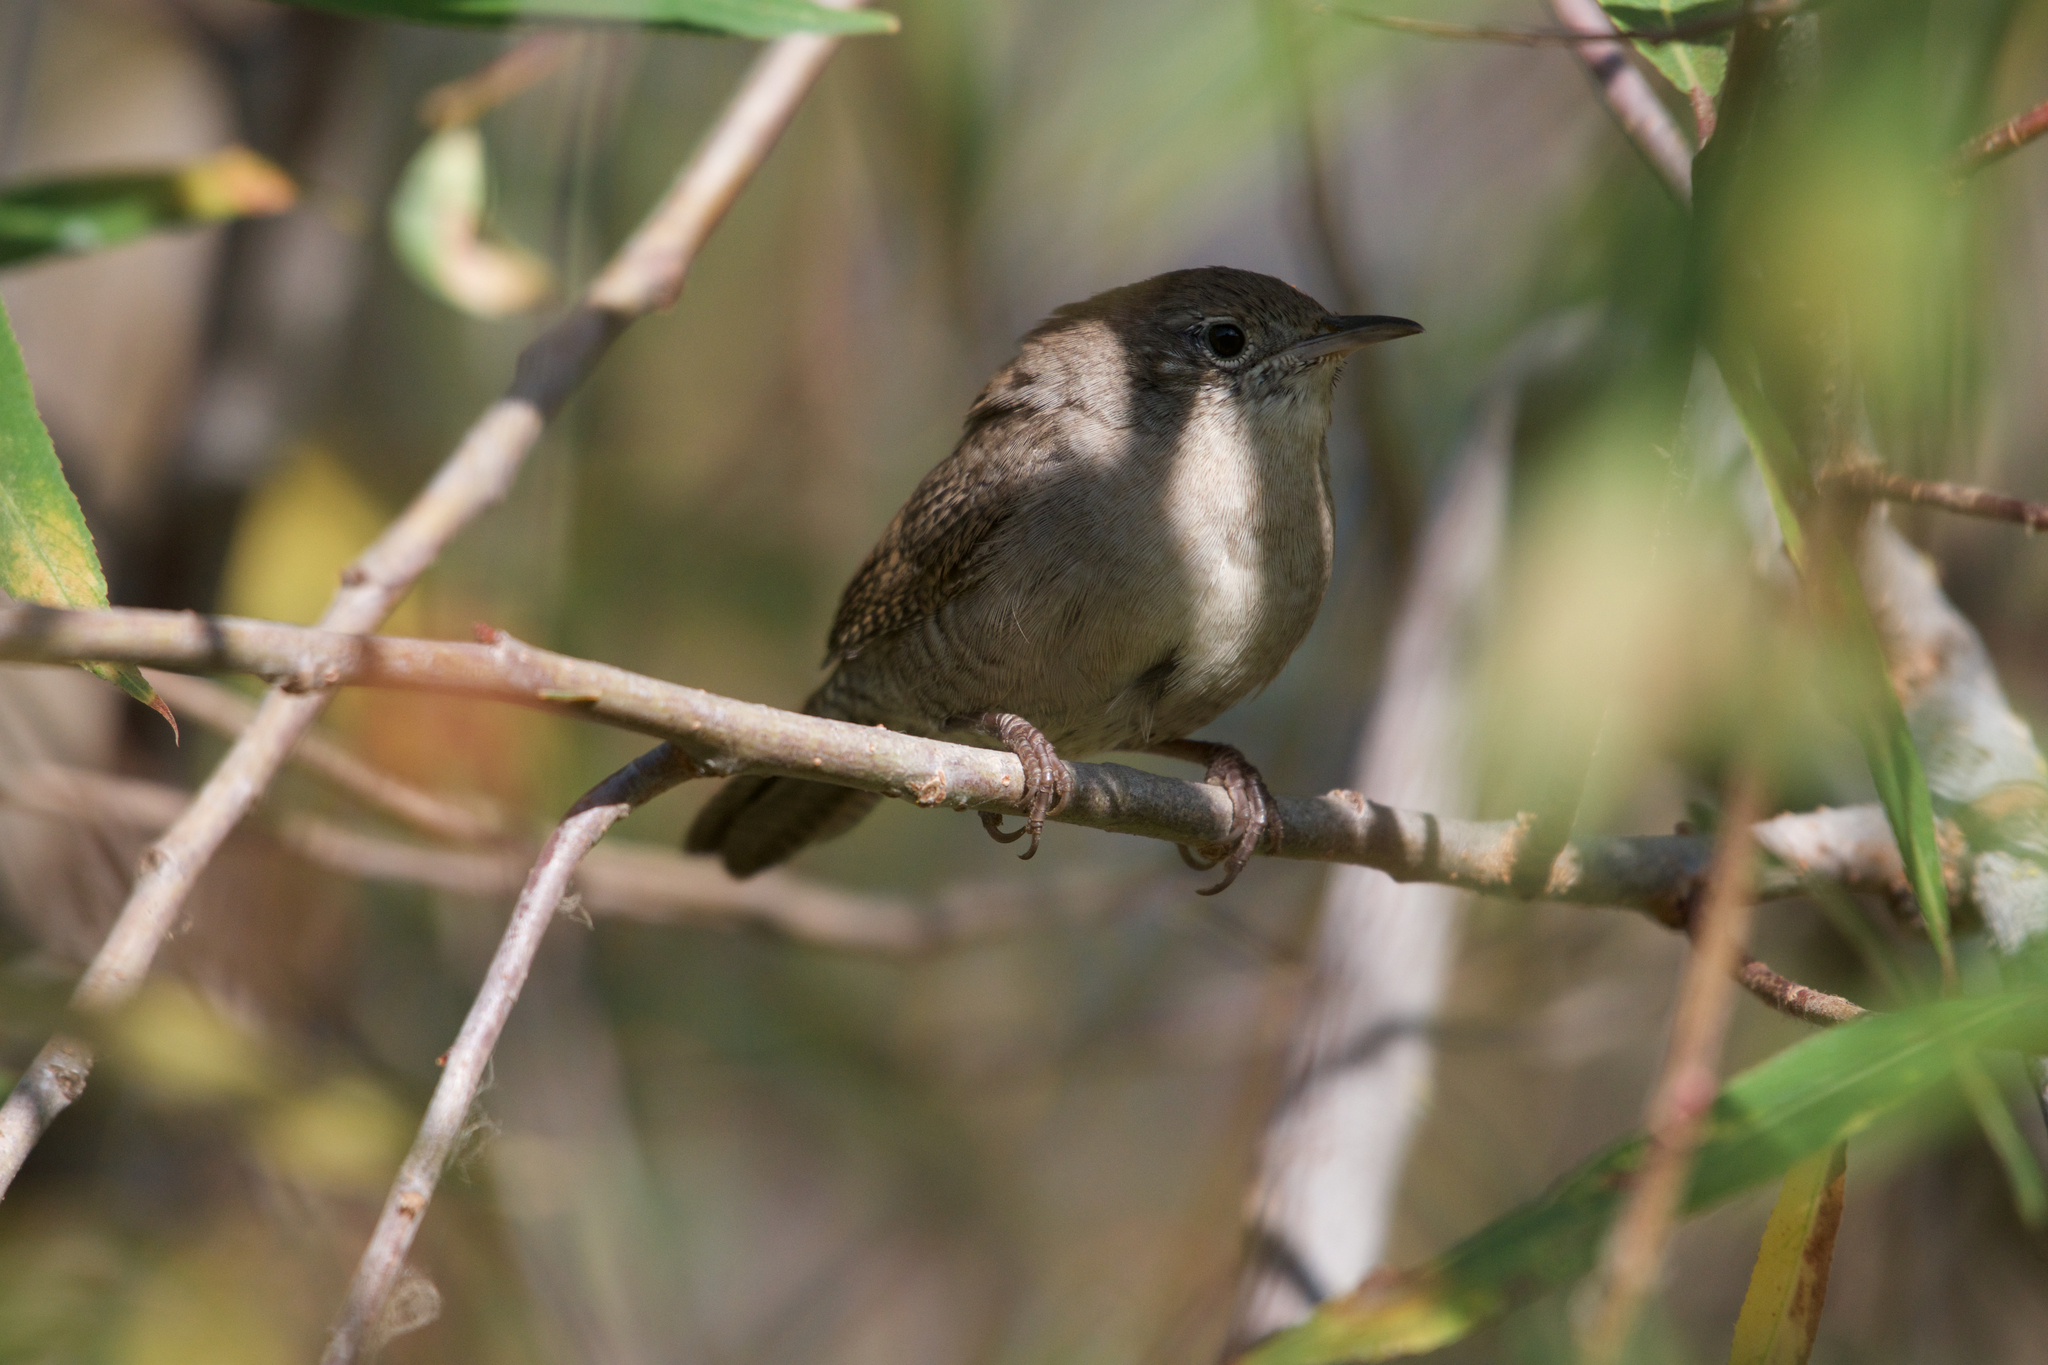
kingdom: Animalia
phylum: Chordata
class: Aves
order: Passeriformes
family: Troglodytidae
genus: Troglodytes
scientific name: Troglodytes aedon
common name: House wren
